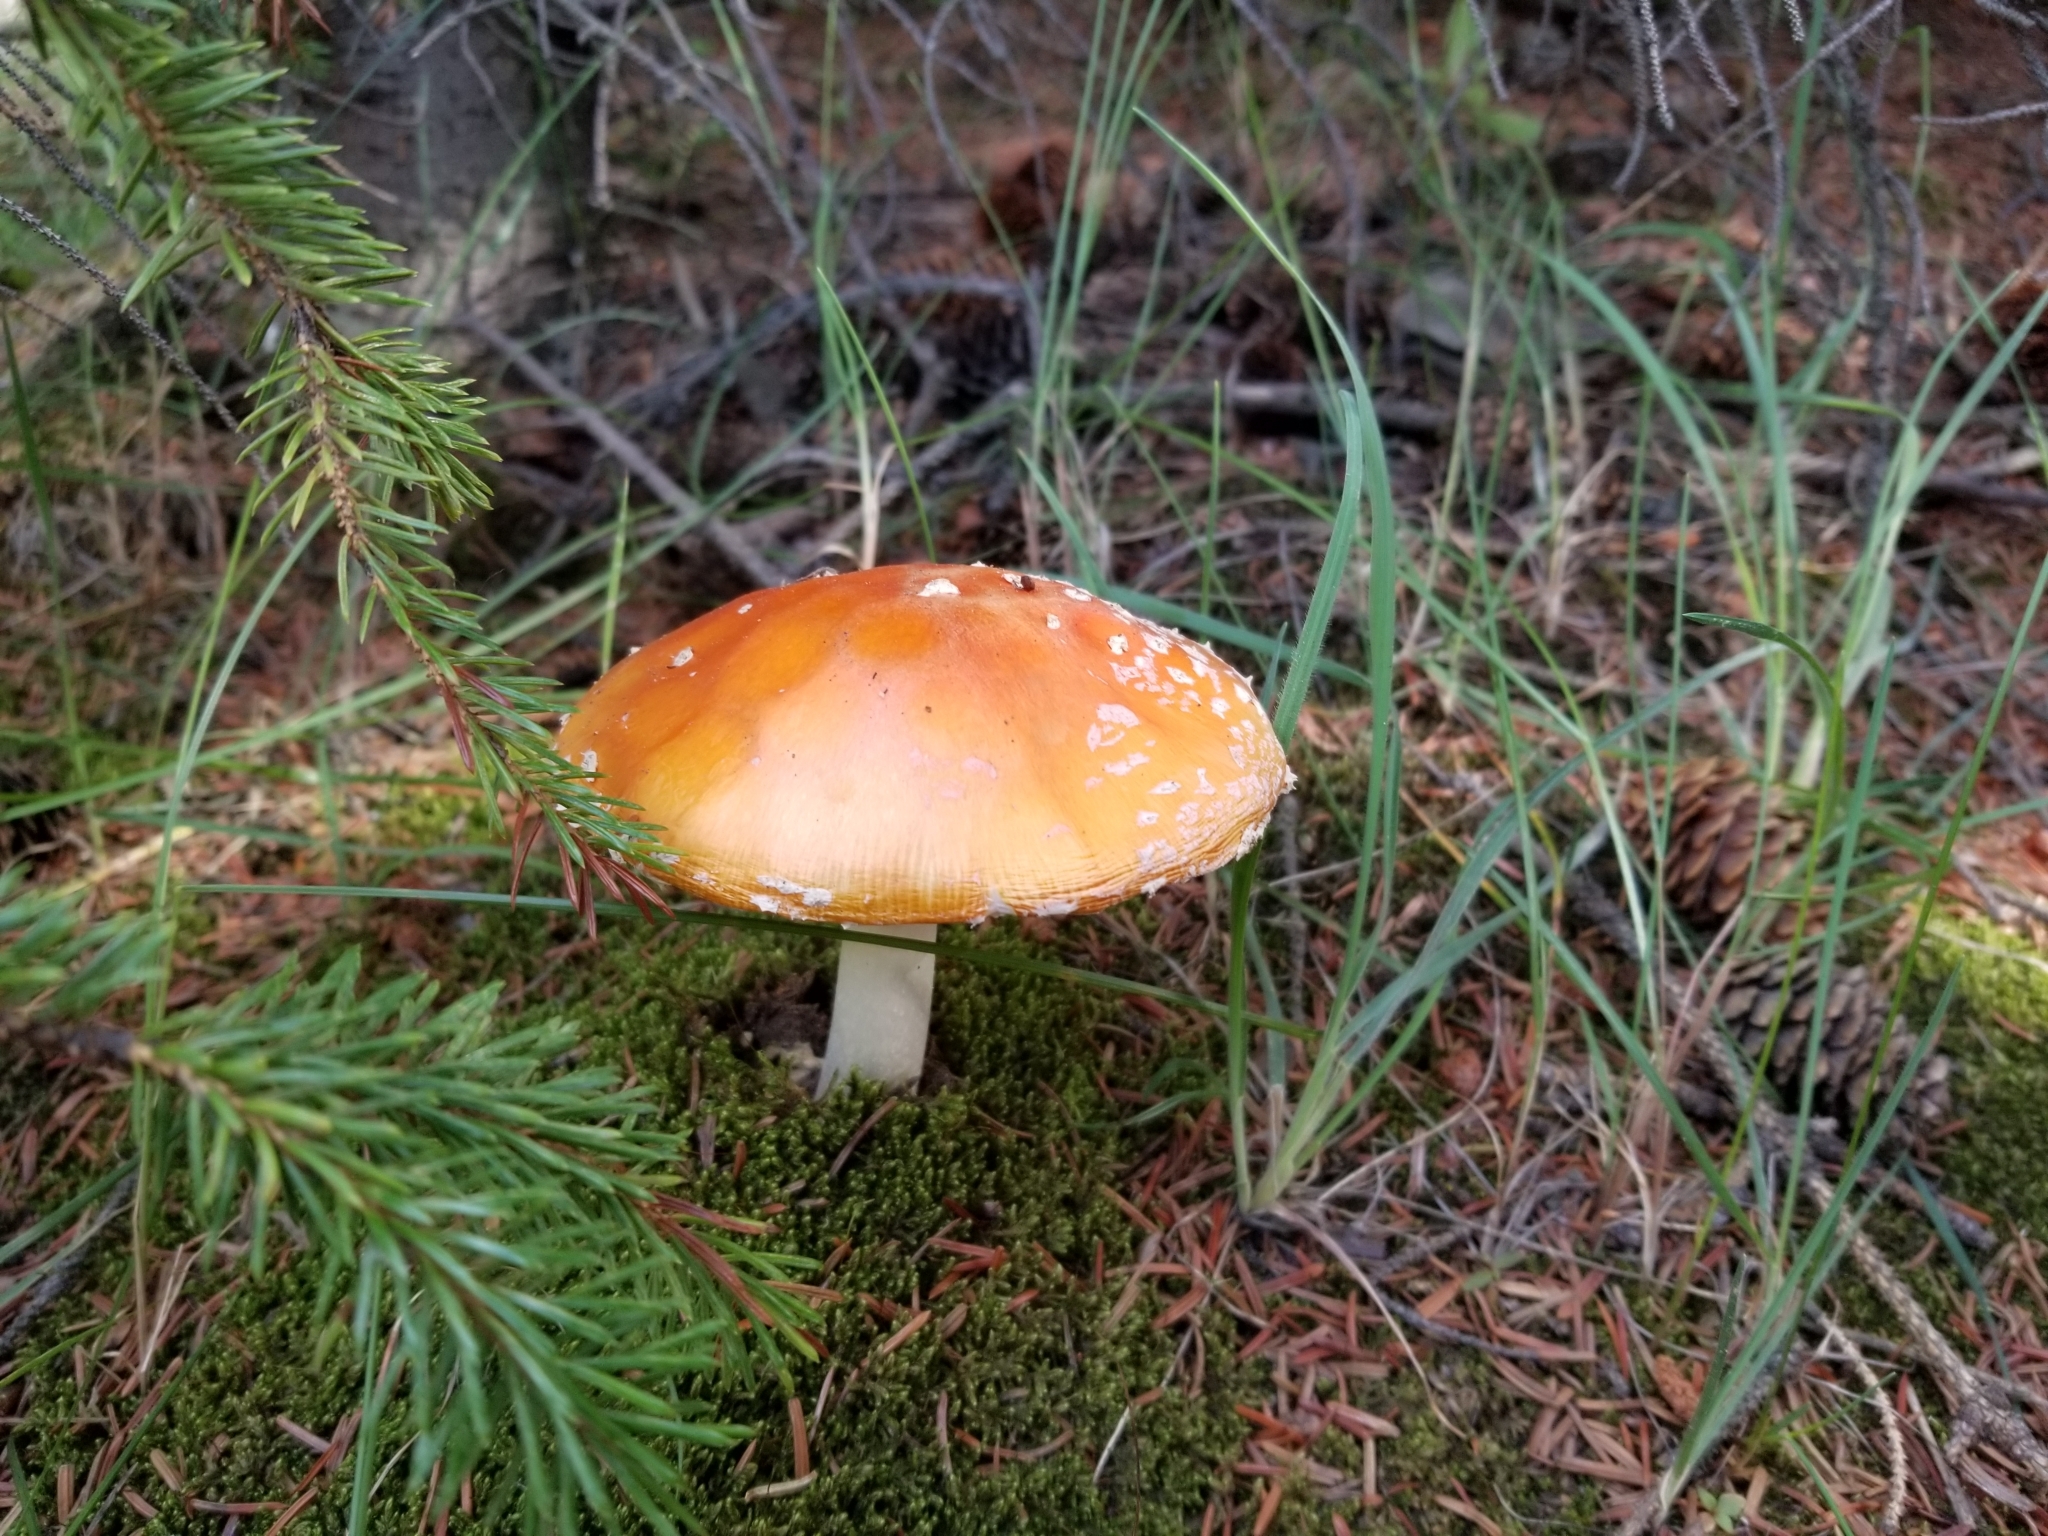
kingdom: Fungi
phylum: Basidiomycota
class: Agaricomycetes
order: Agaricales
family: Amanitaceae
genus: Amanita
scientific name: Amanita muscaria
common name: Fly agaric
